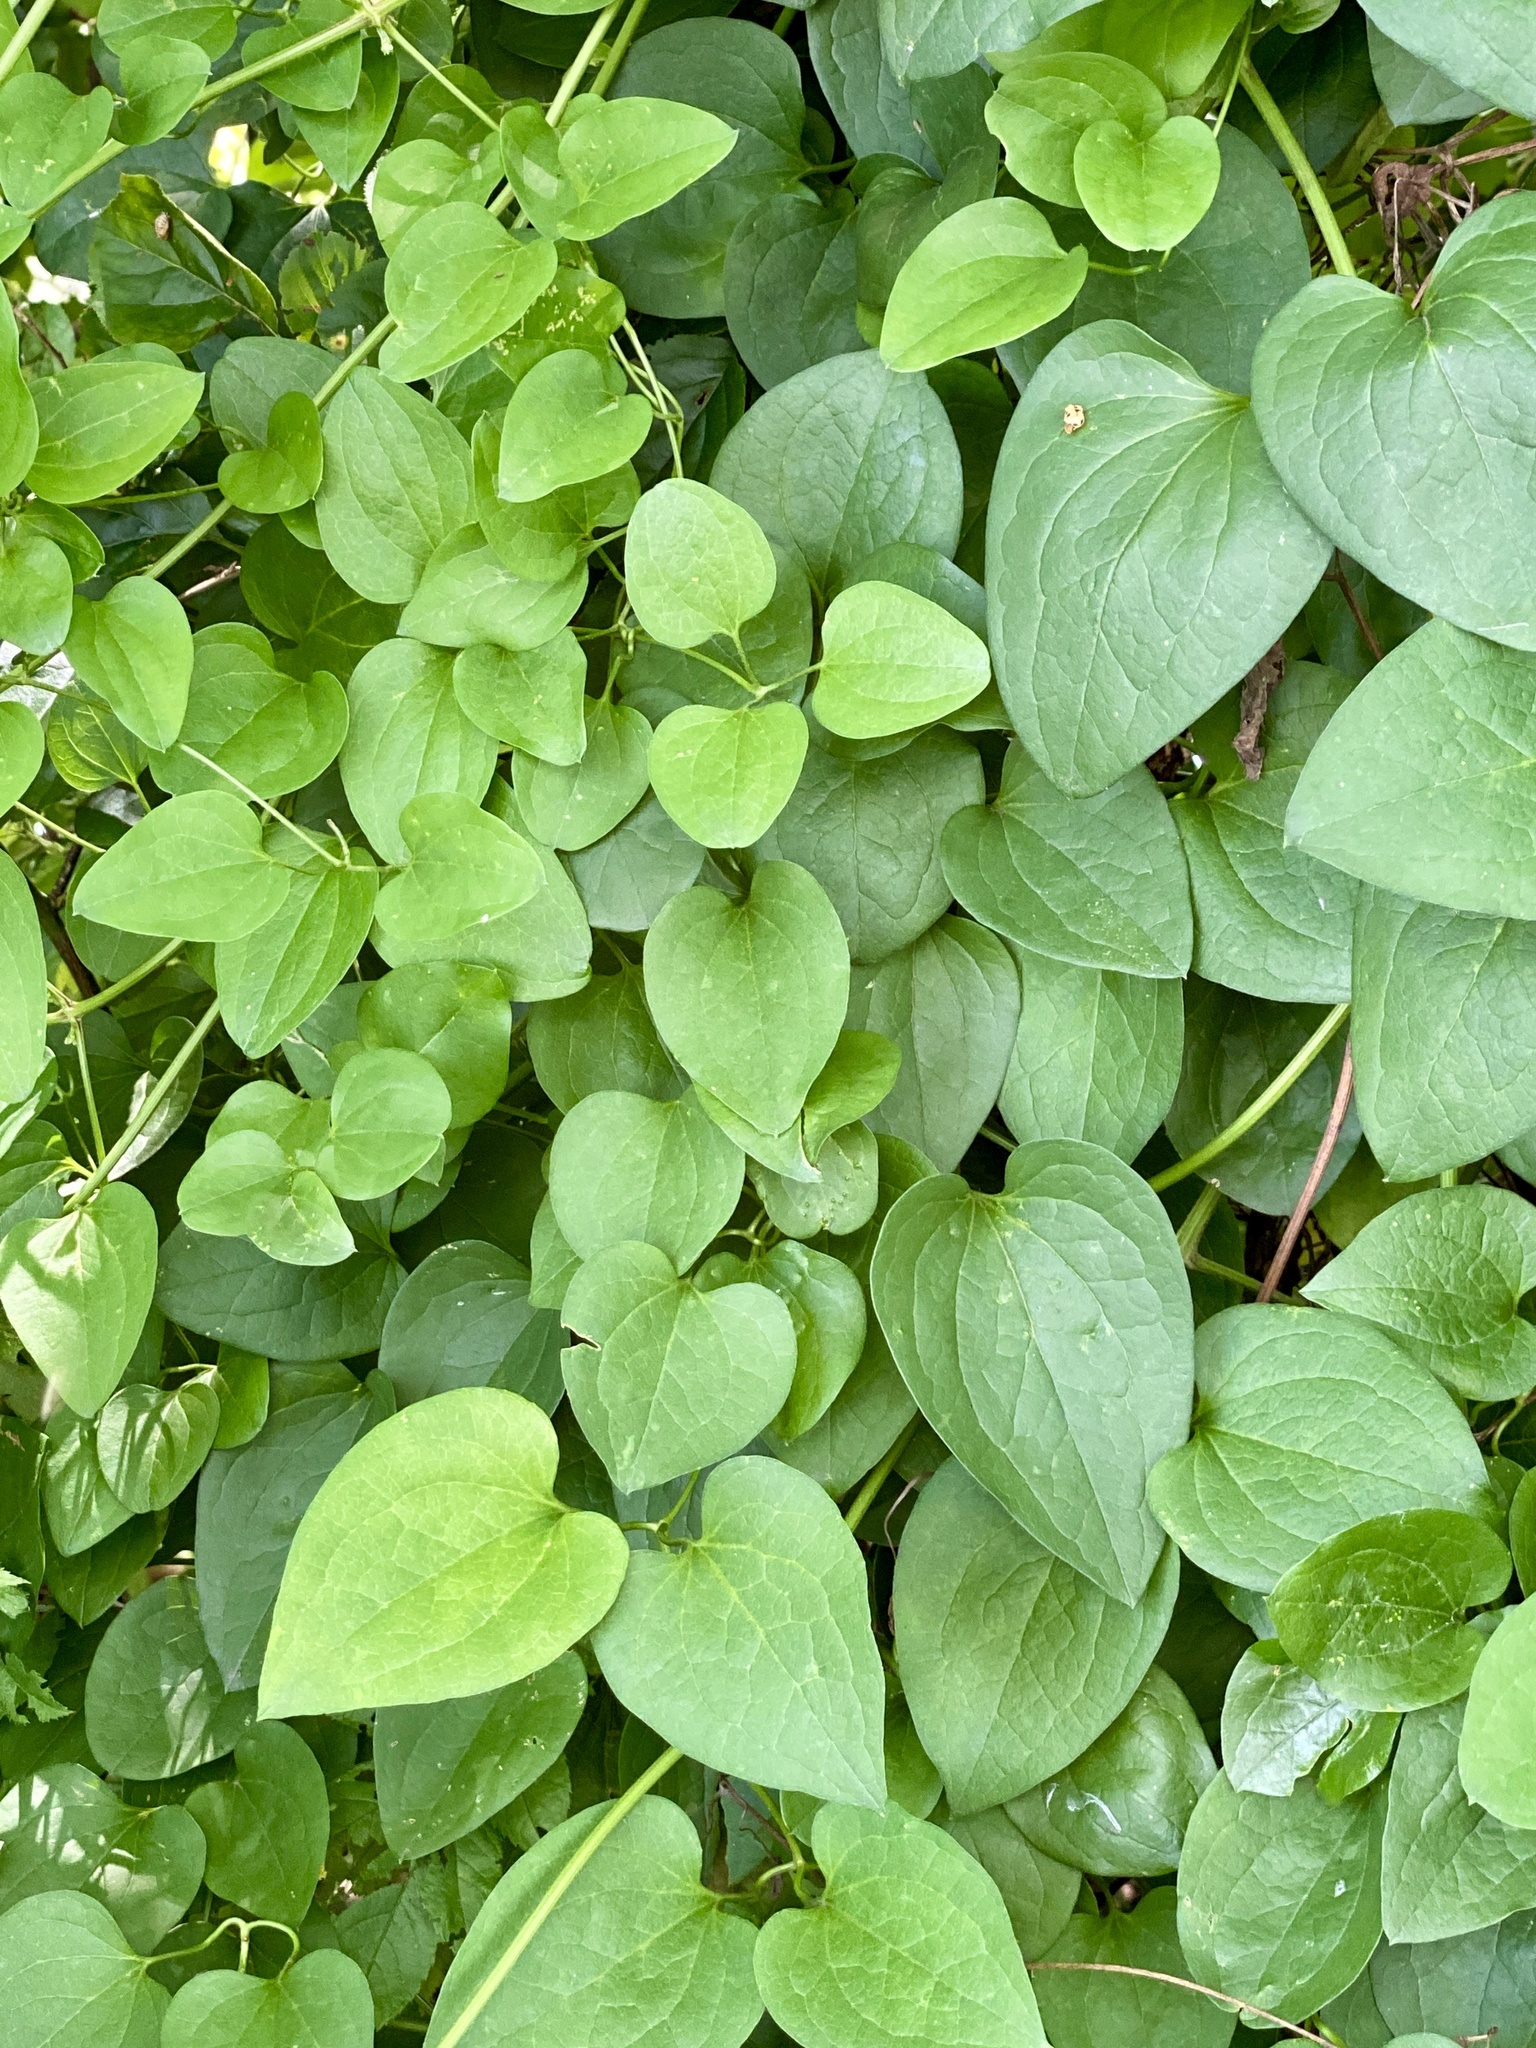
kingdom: Plantae
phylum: Tracheophyta
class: Magnoliopsida
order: Ranunculales
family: Ranunculaceae
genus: Clematis
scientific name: Clematis terniflora
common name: Sweet autumn clematis
